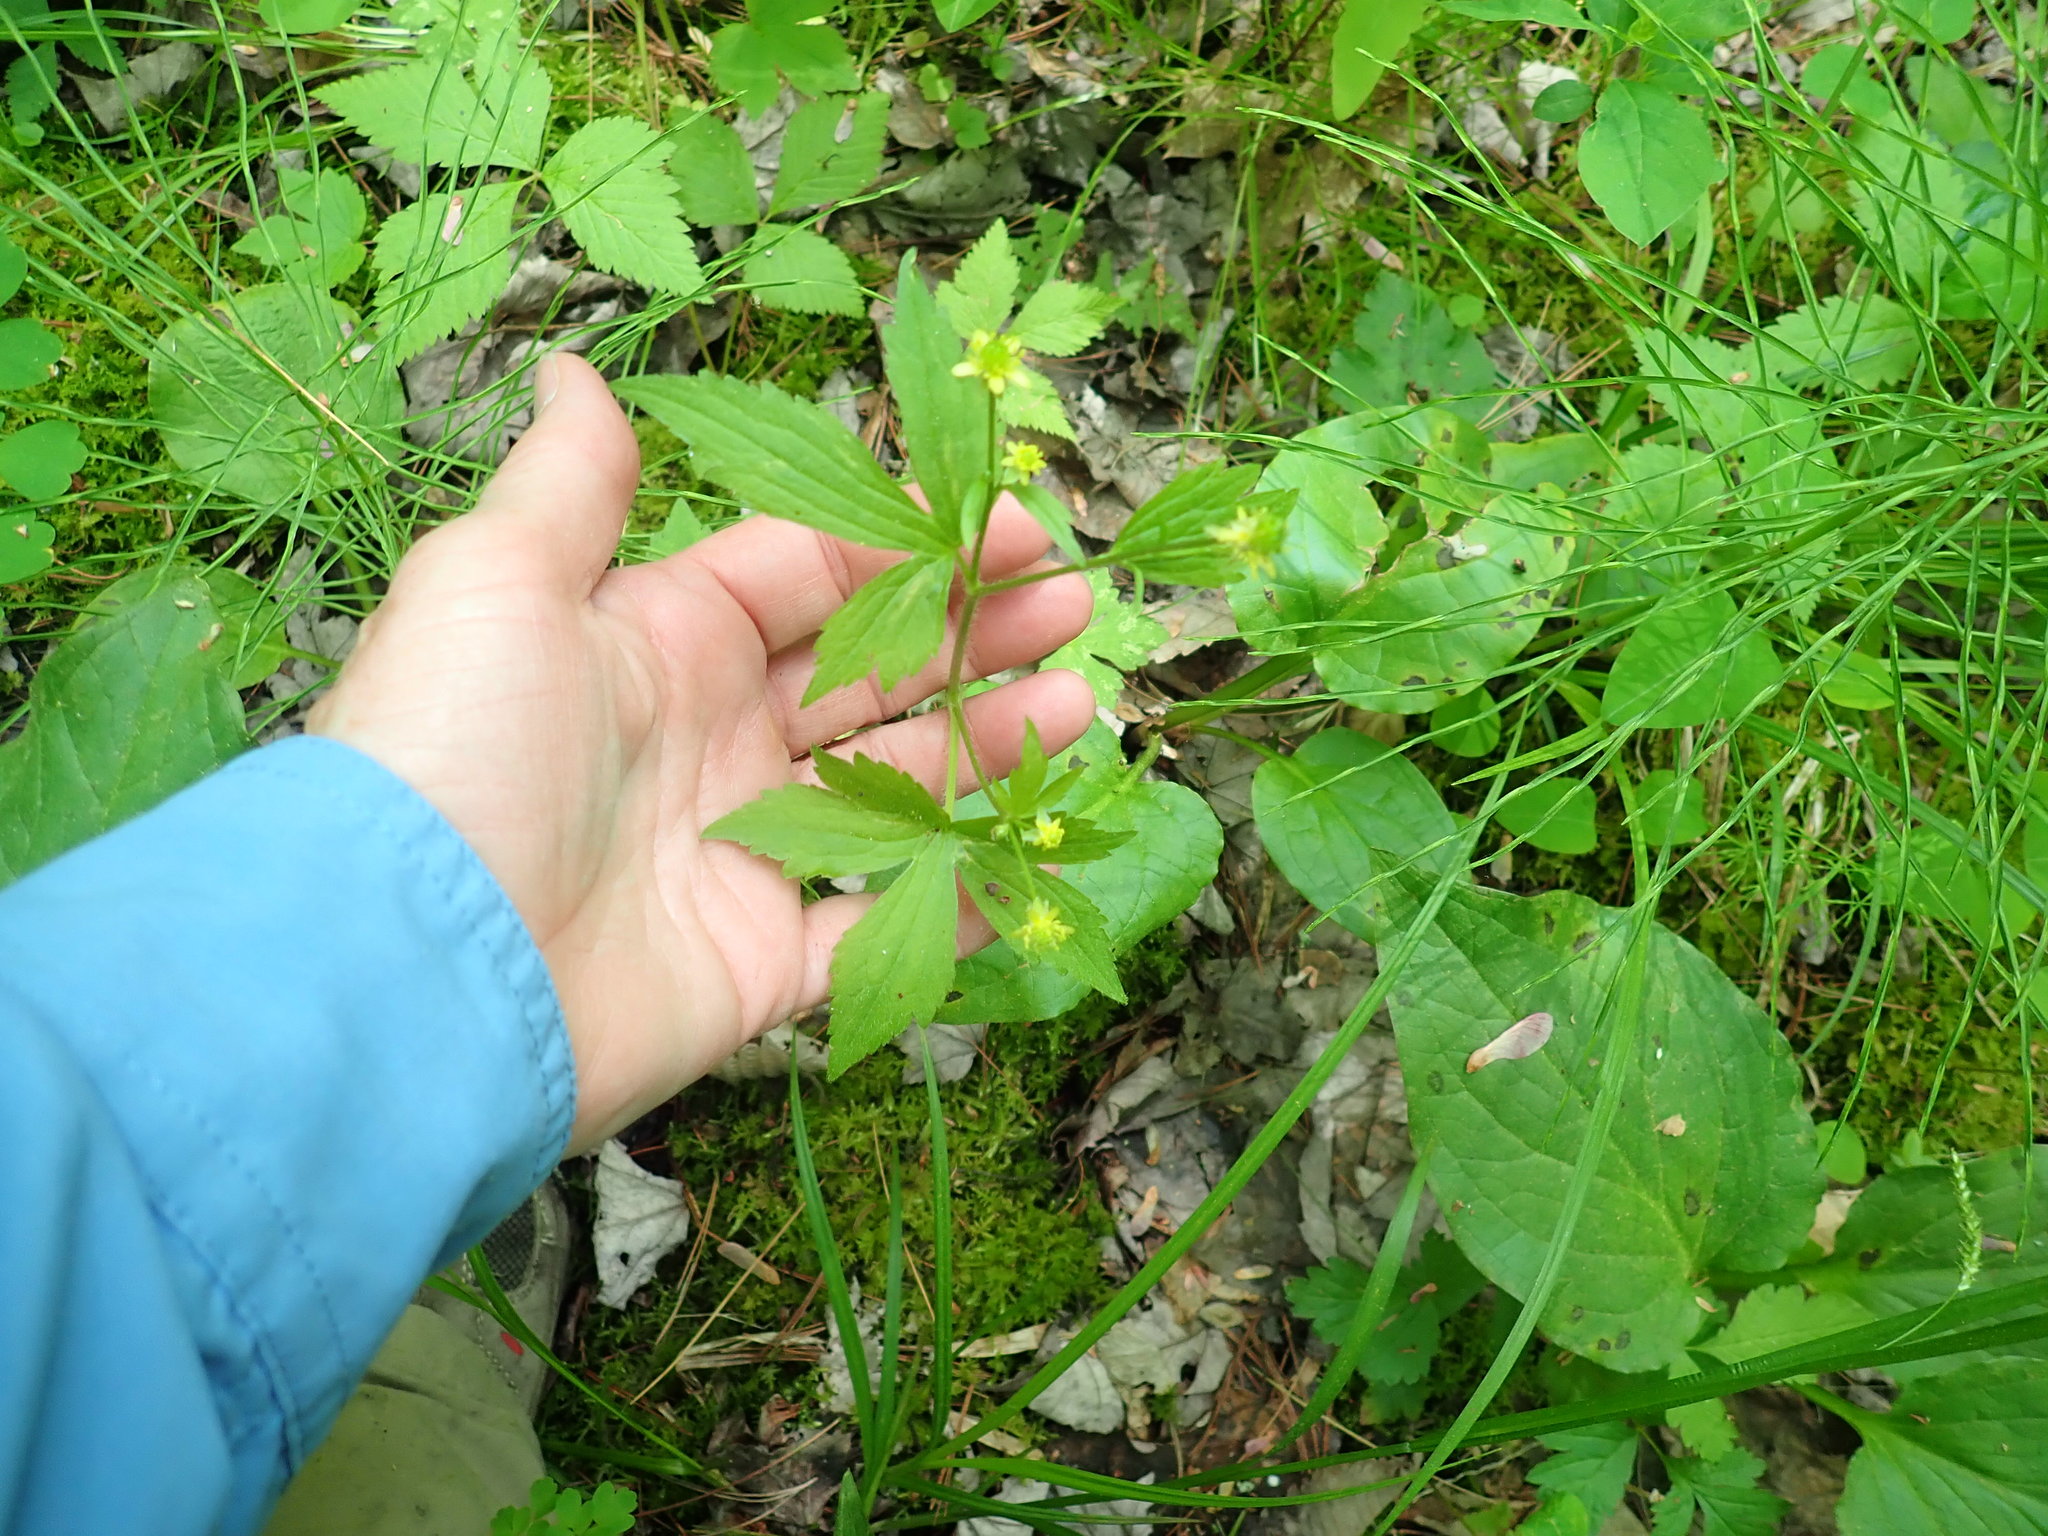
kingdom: Plantae
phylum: Tracheophyta
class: Magnoliopsida
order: Ranunculales
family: Ranunculaceae
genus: Ranunculus
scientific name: Ranunculus recurvatus
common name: Blisterwort
